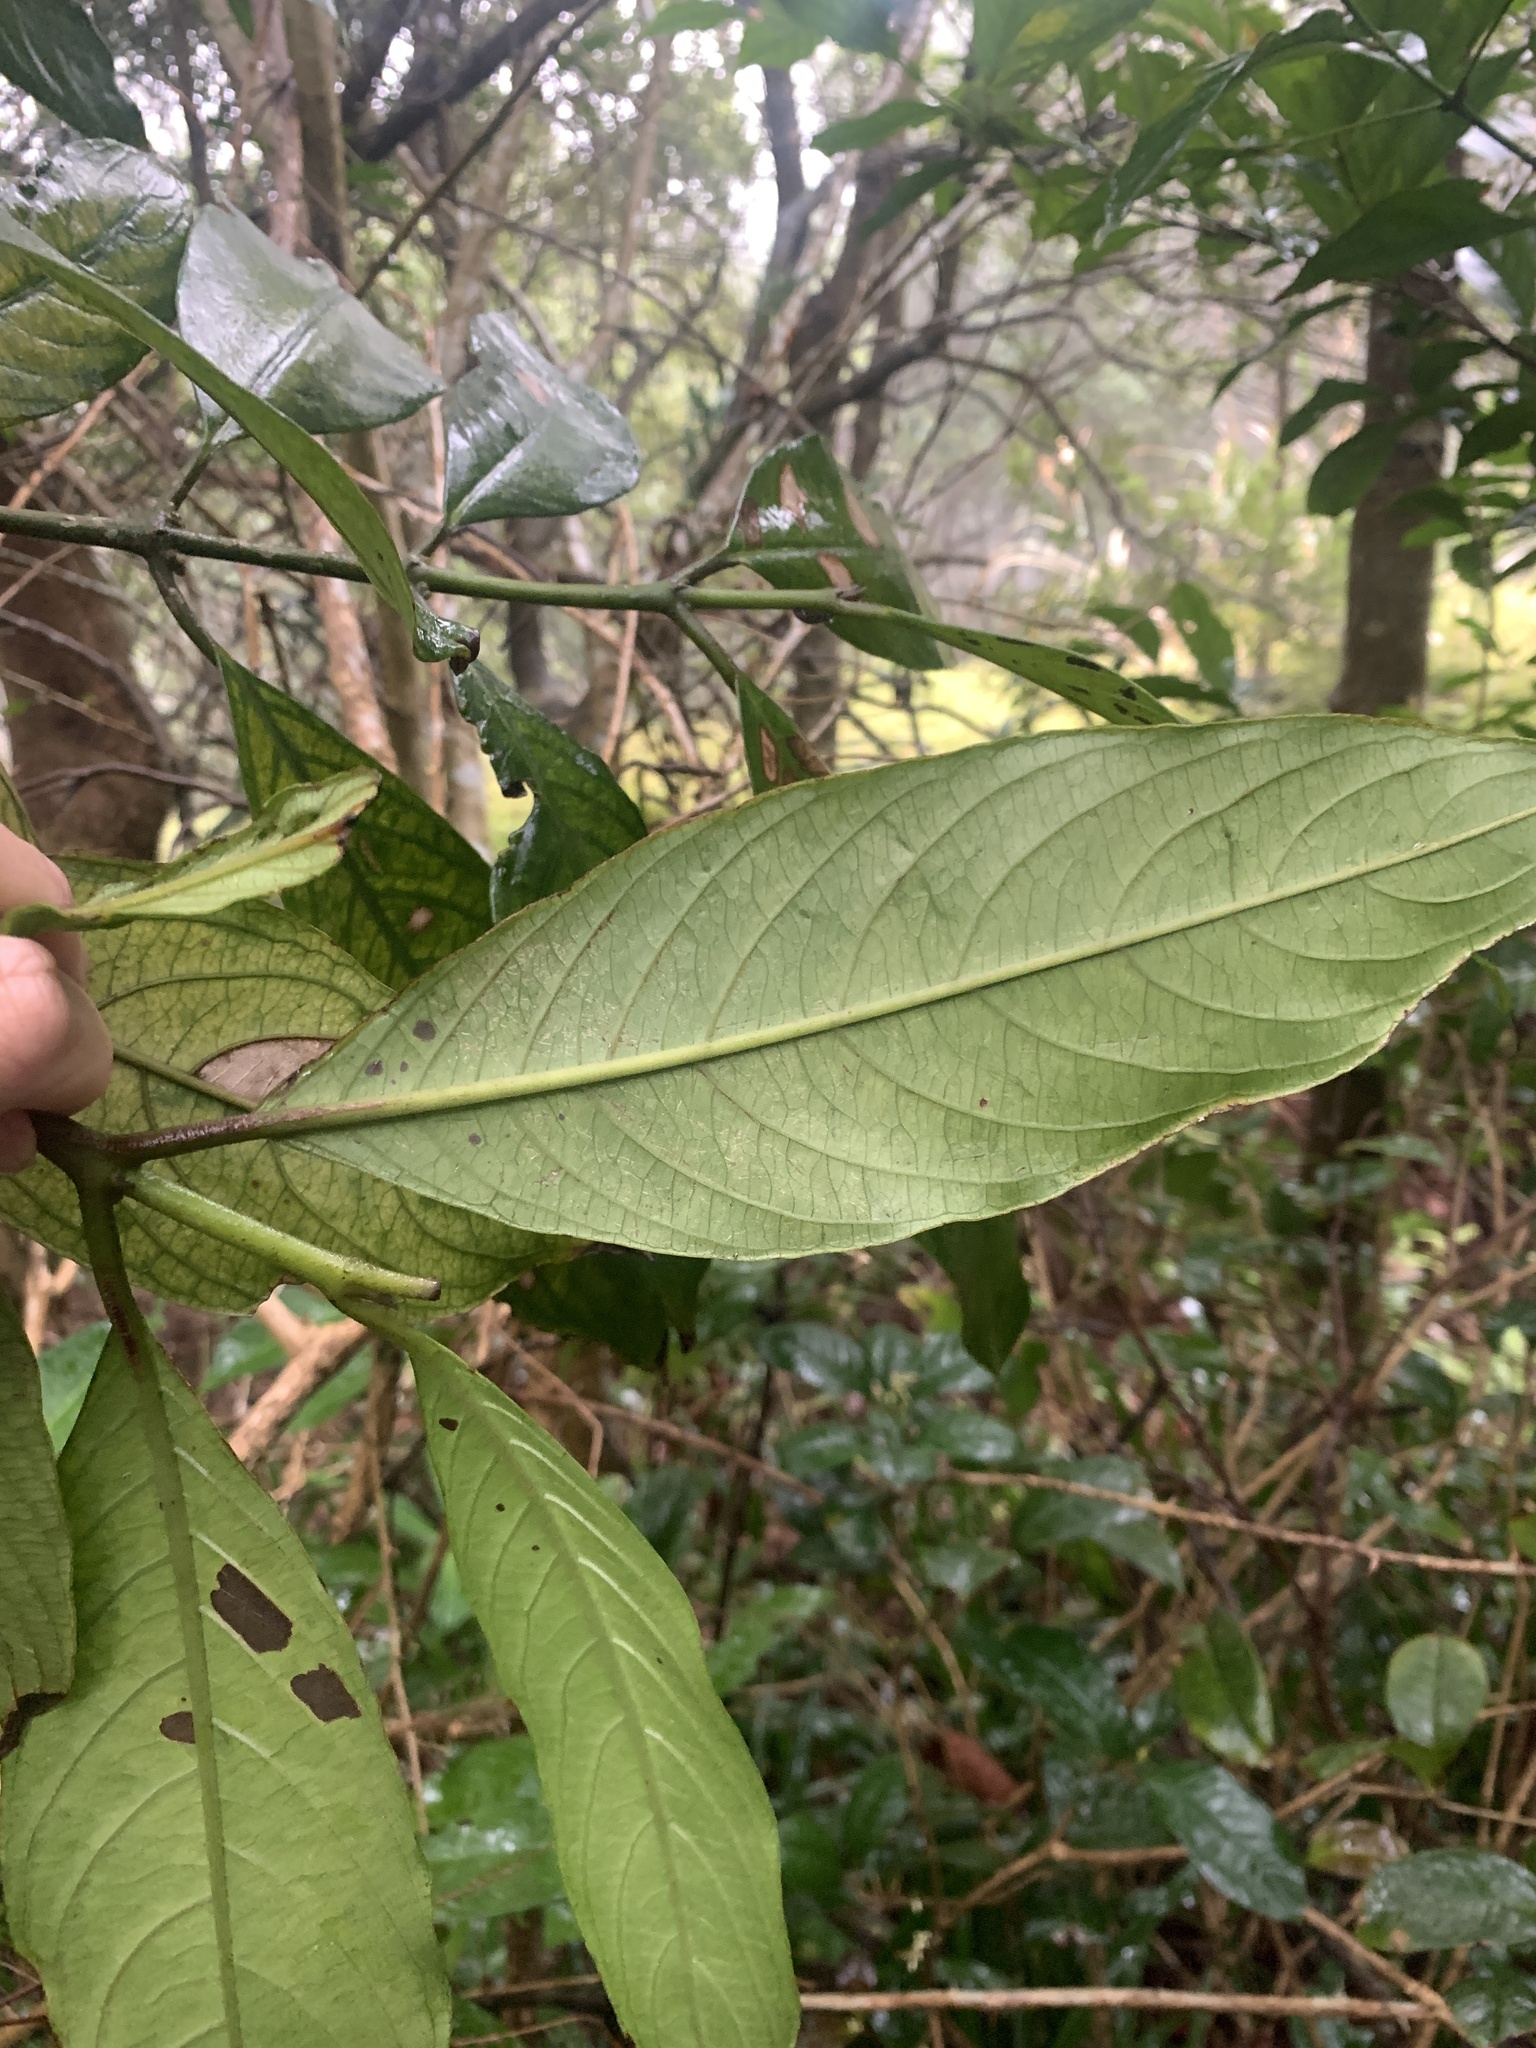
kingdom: Plantae
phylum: Tracheophyta
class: Magnoliopsida
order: Gentianales
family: Rubiaceae
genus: Lasianthus
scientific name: Lasianthus chinensis
